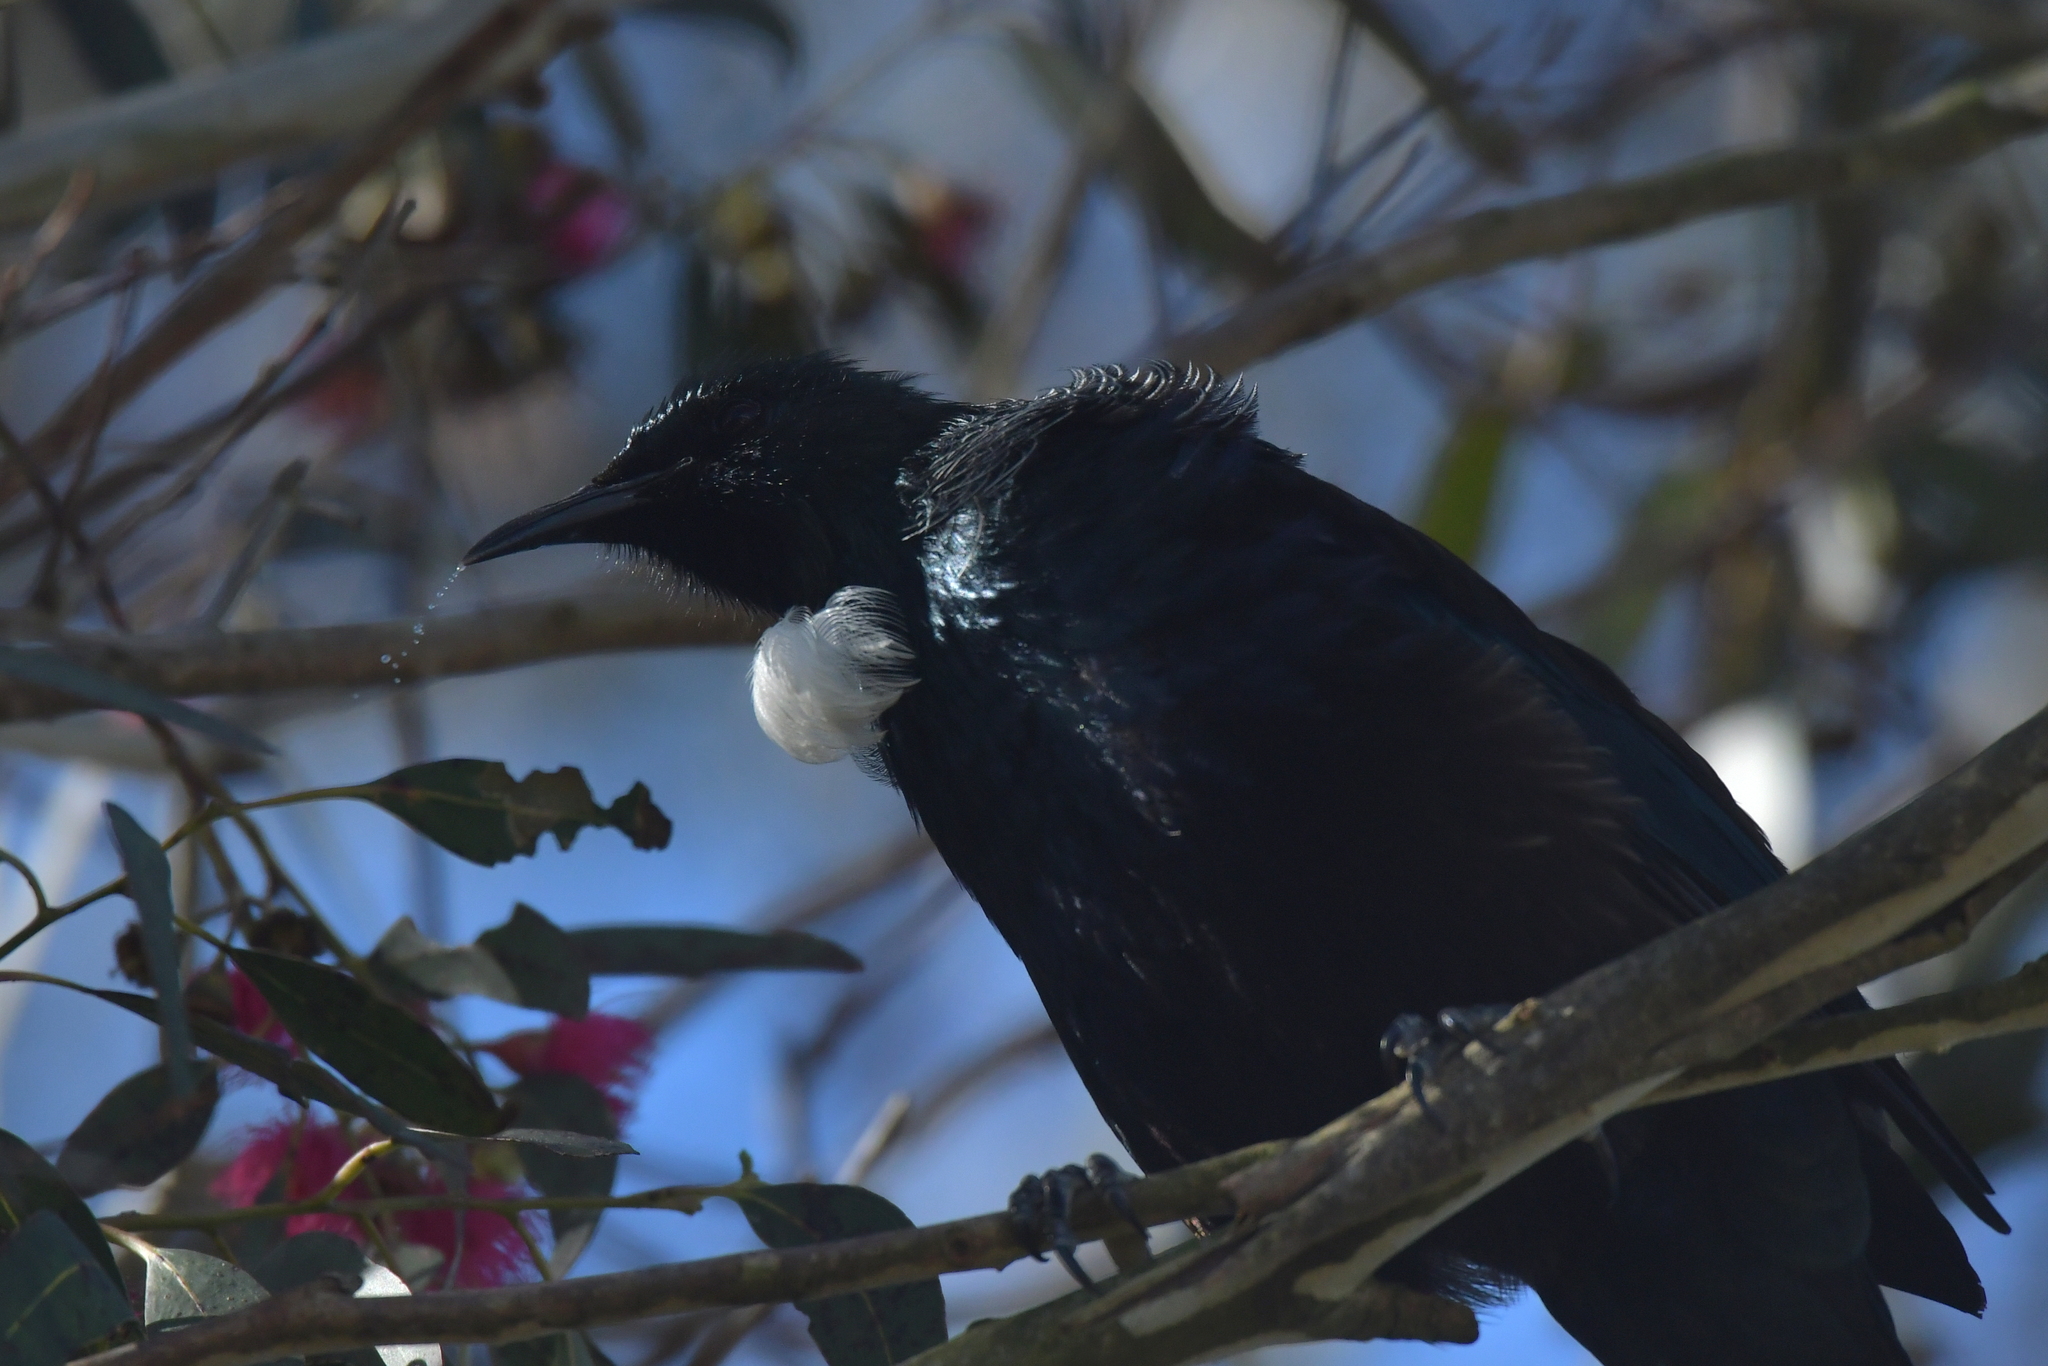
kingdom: Animalia
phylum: Chordata
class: Aves
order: Passeriformes
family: Meliphagidae
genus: Prosthemadera
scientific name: Prosthemadera novaeseelandiae
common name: Tui
